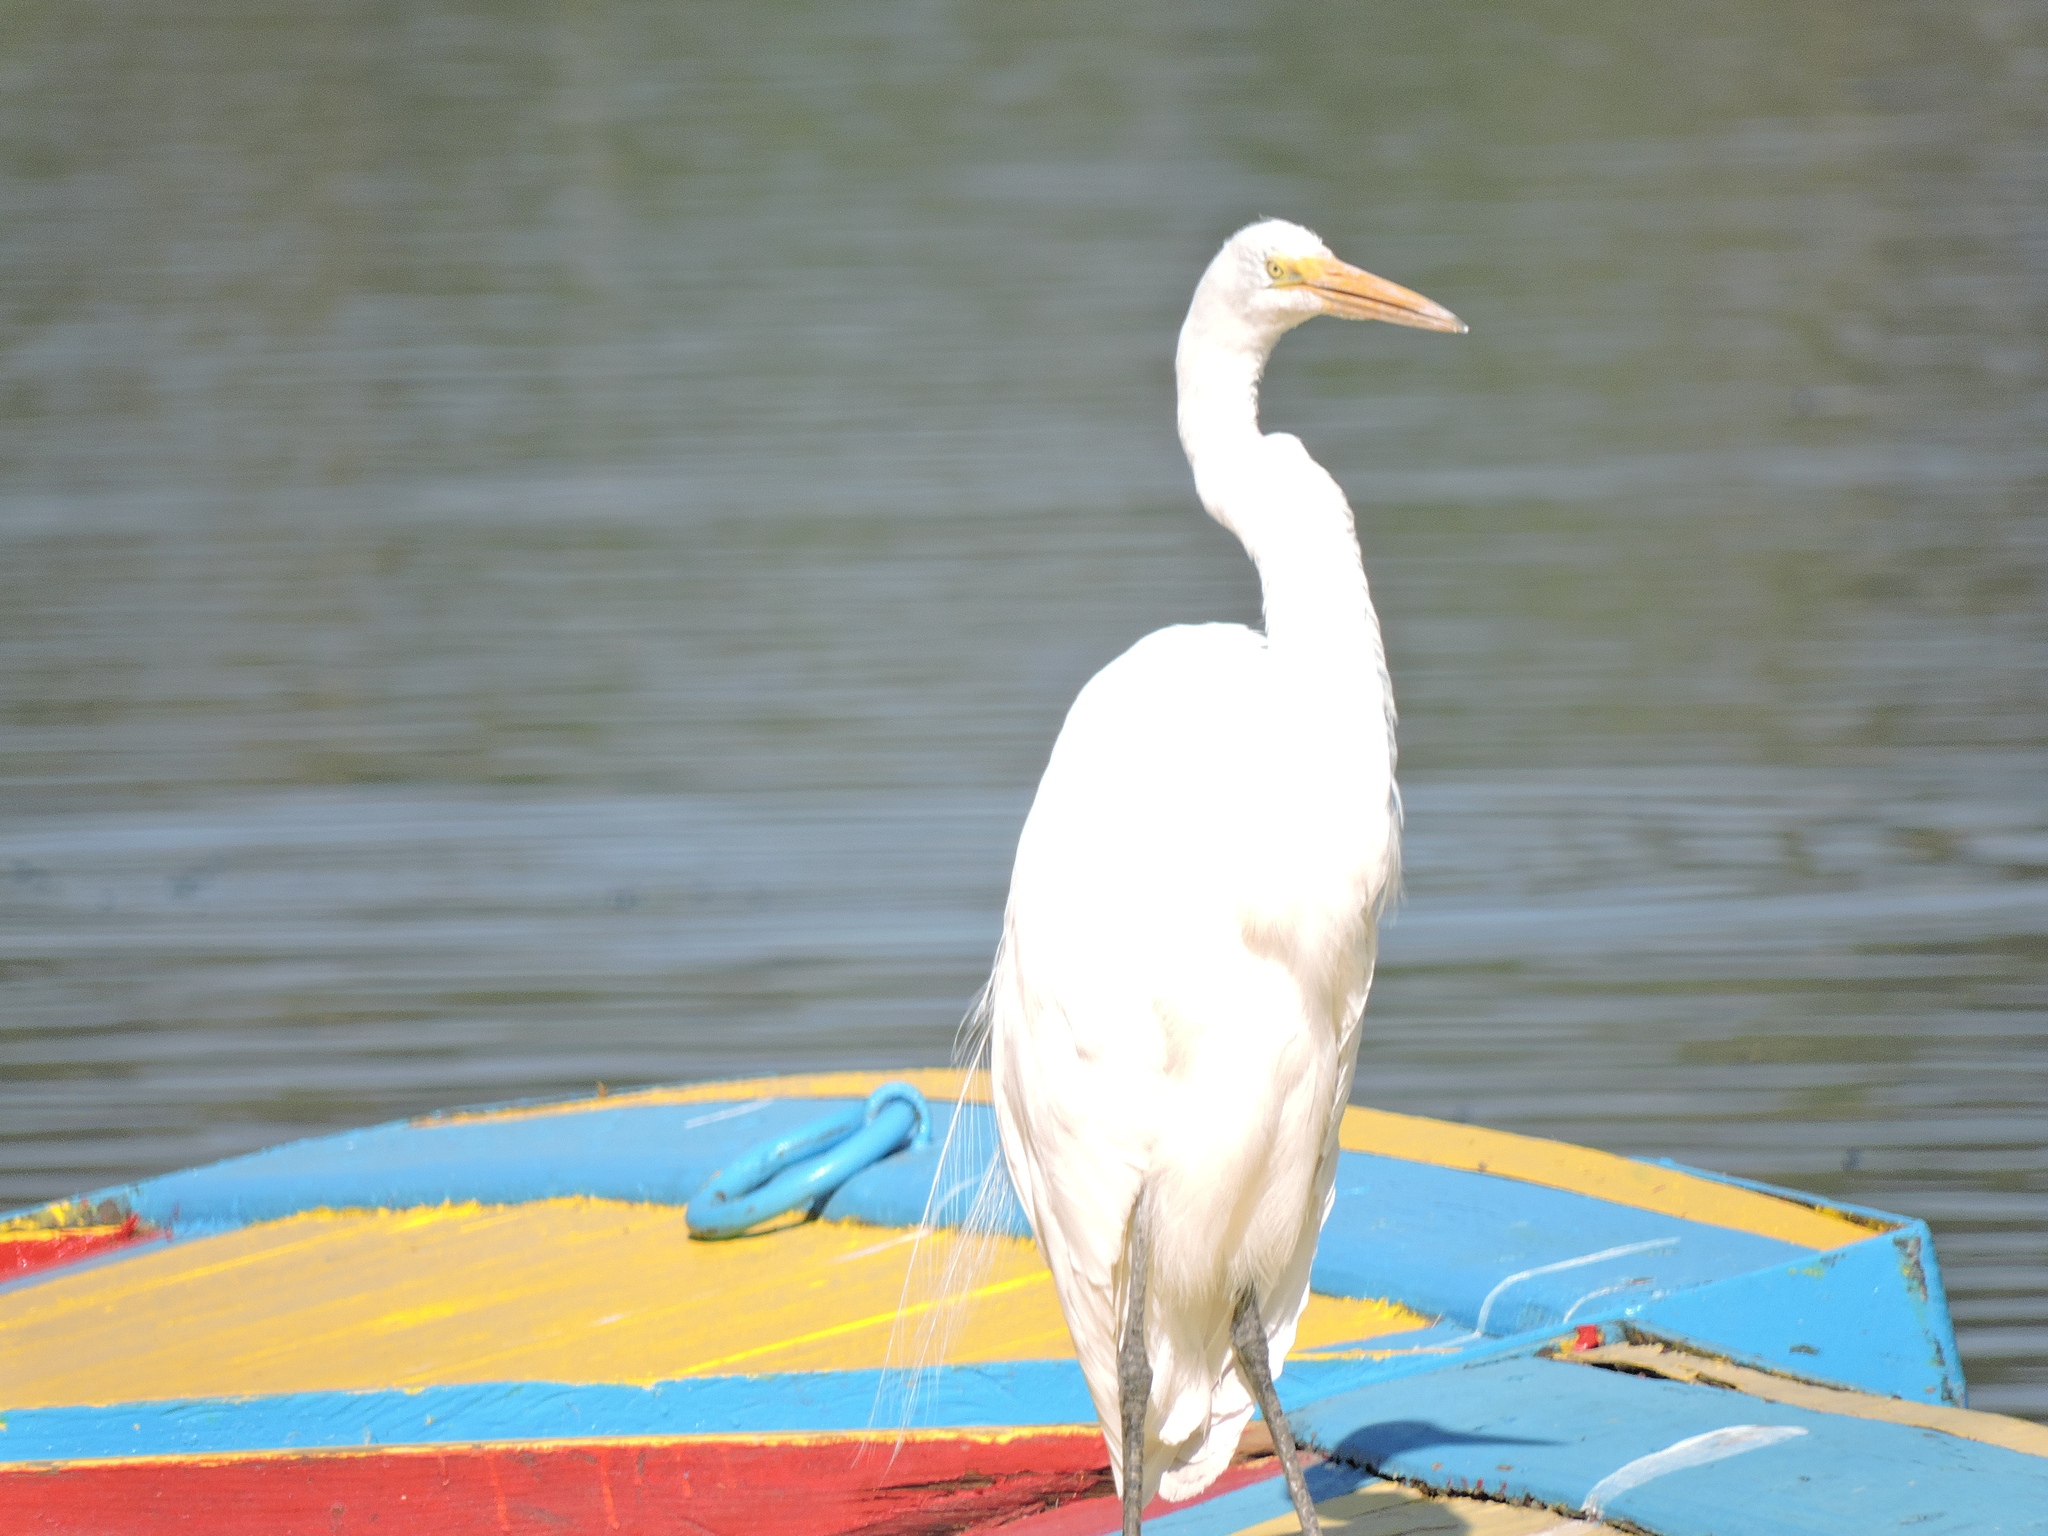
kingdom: Animalia
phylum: Chordata
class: Aves
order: Pelecaniformes
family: Ardeidae
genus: Ardea
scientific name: Ardea alba
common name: Great egret
